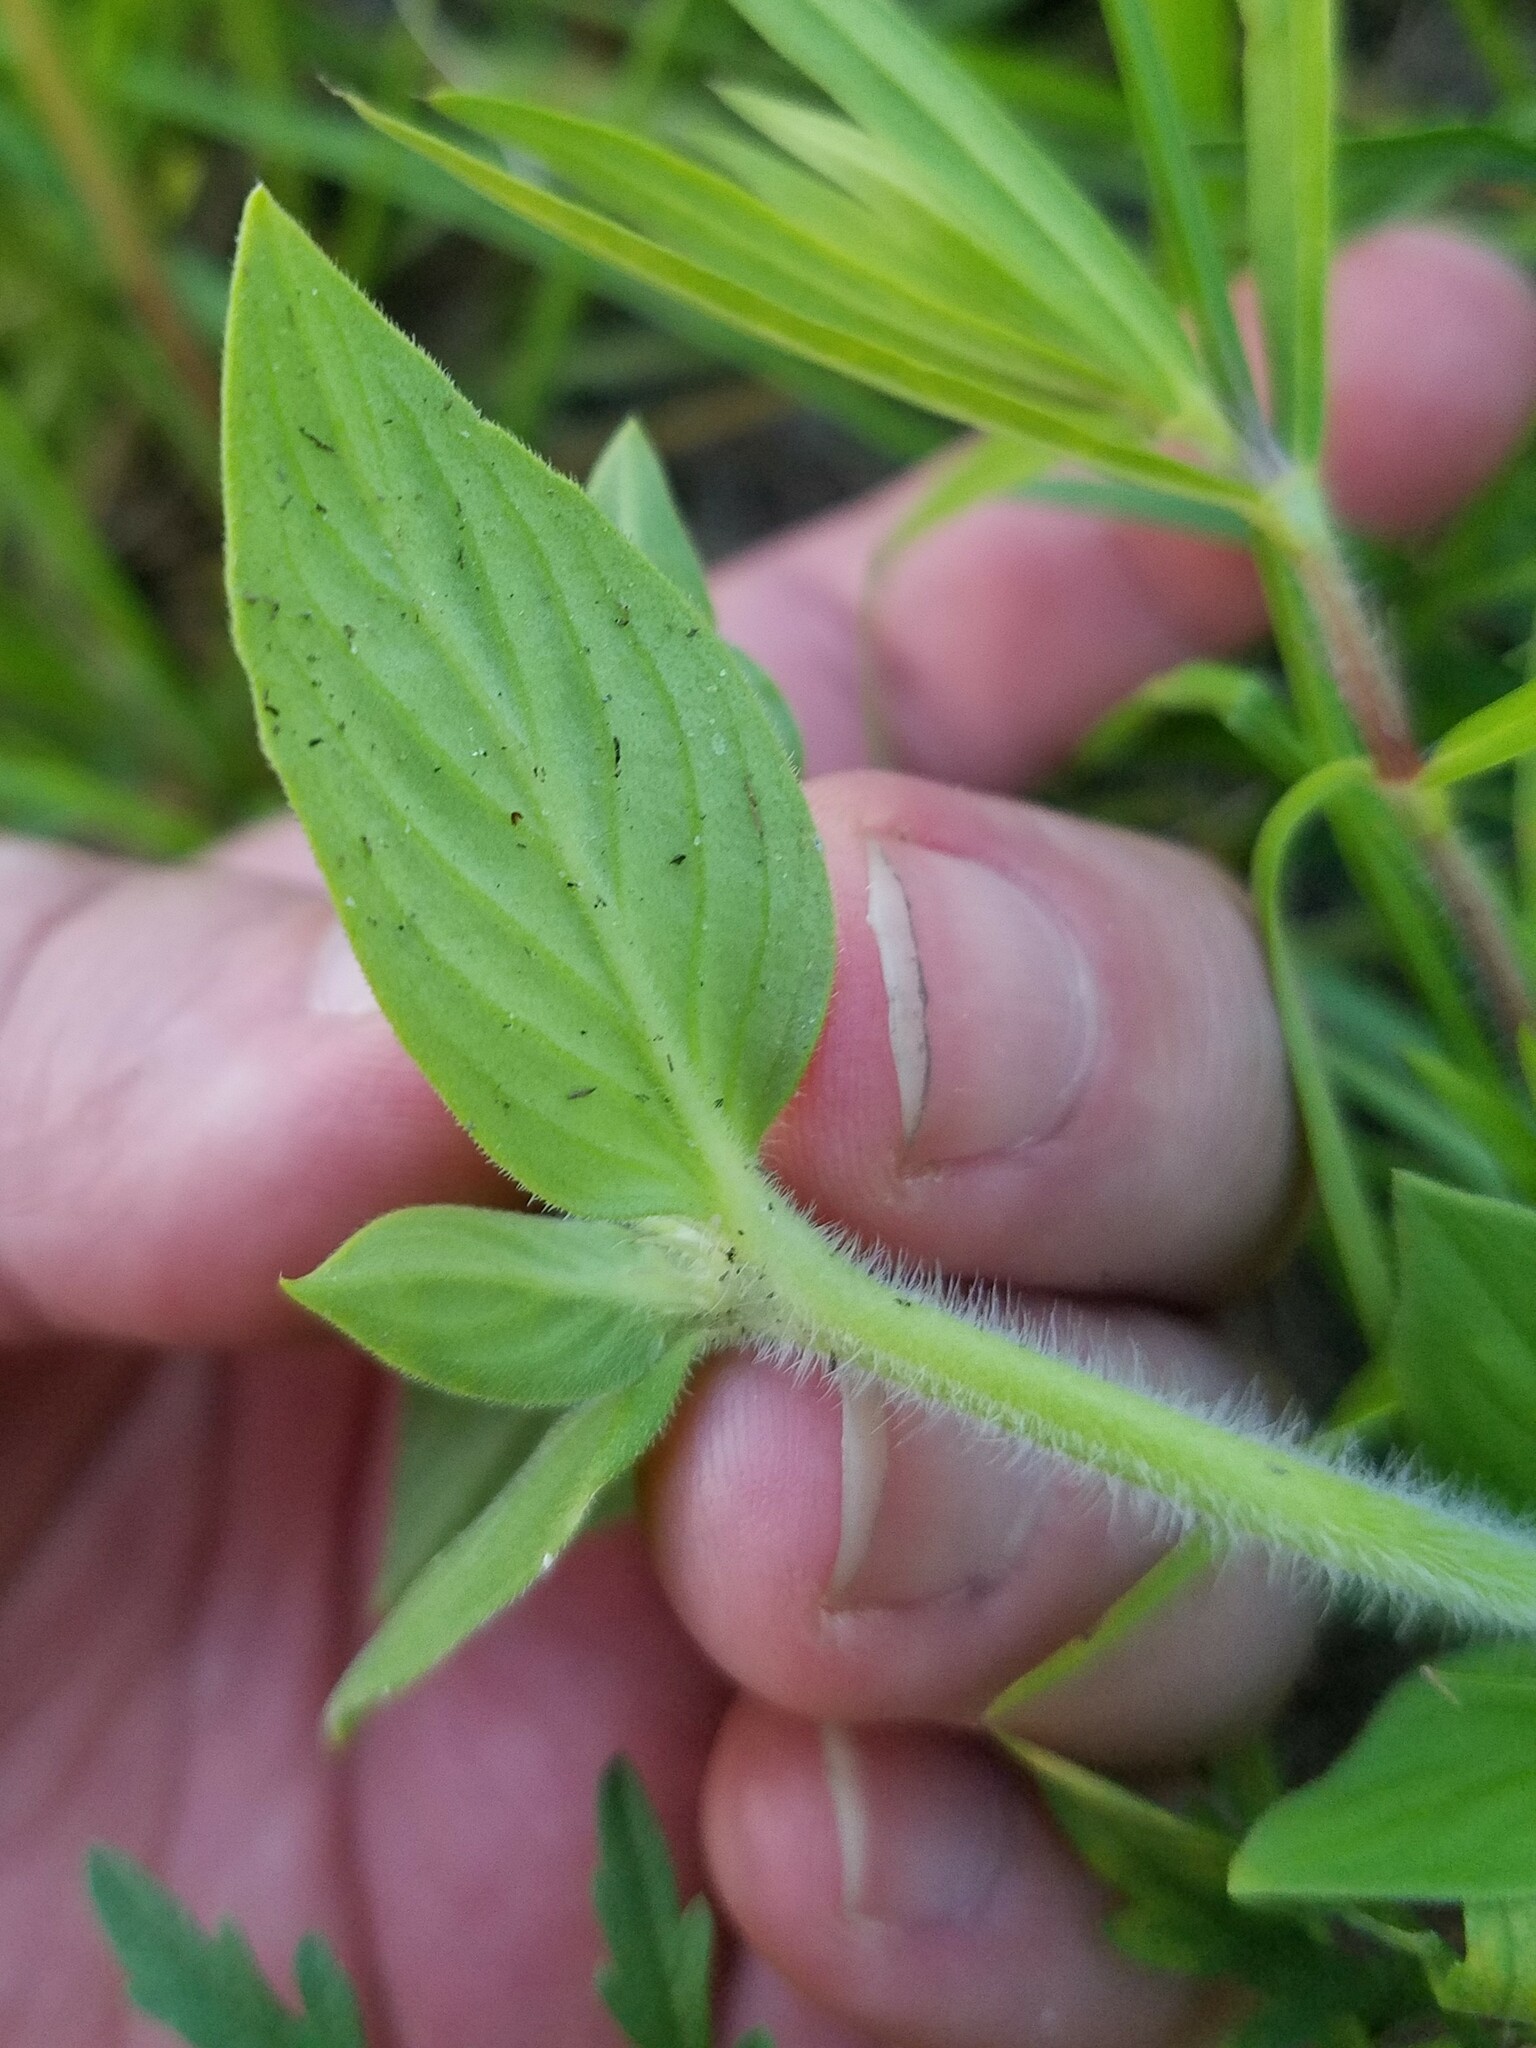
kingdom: Plantae
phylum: Tracheophyta
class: Magnoliopsida
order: Gentianales
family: Rubiaceae
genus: Richardia
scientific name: Richardia scabra
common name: Rough mexican clover
